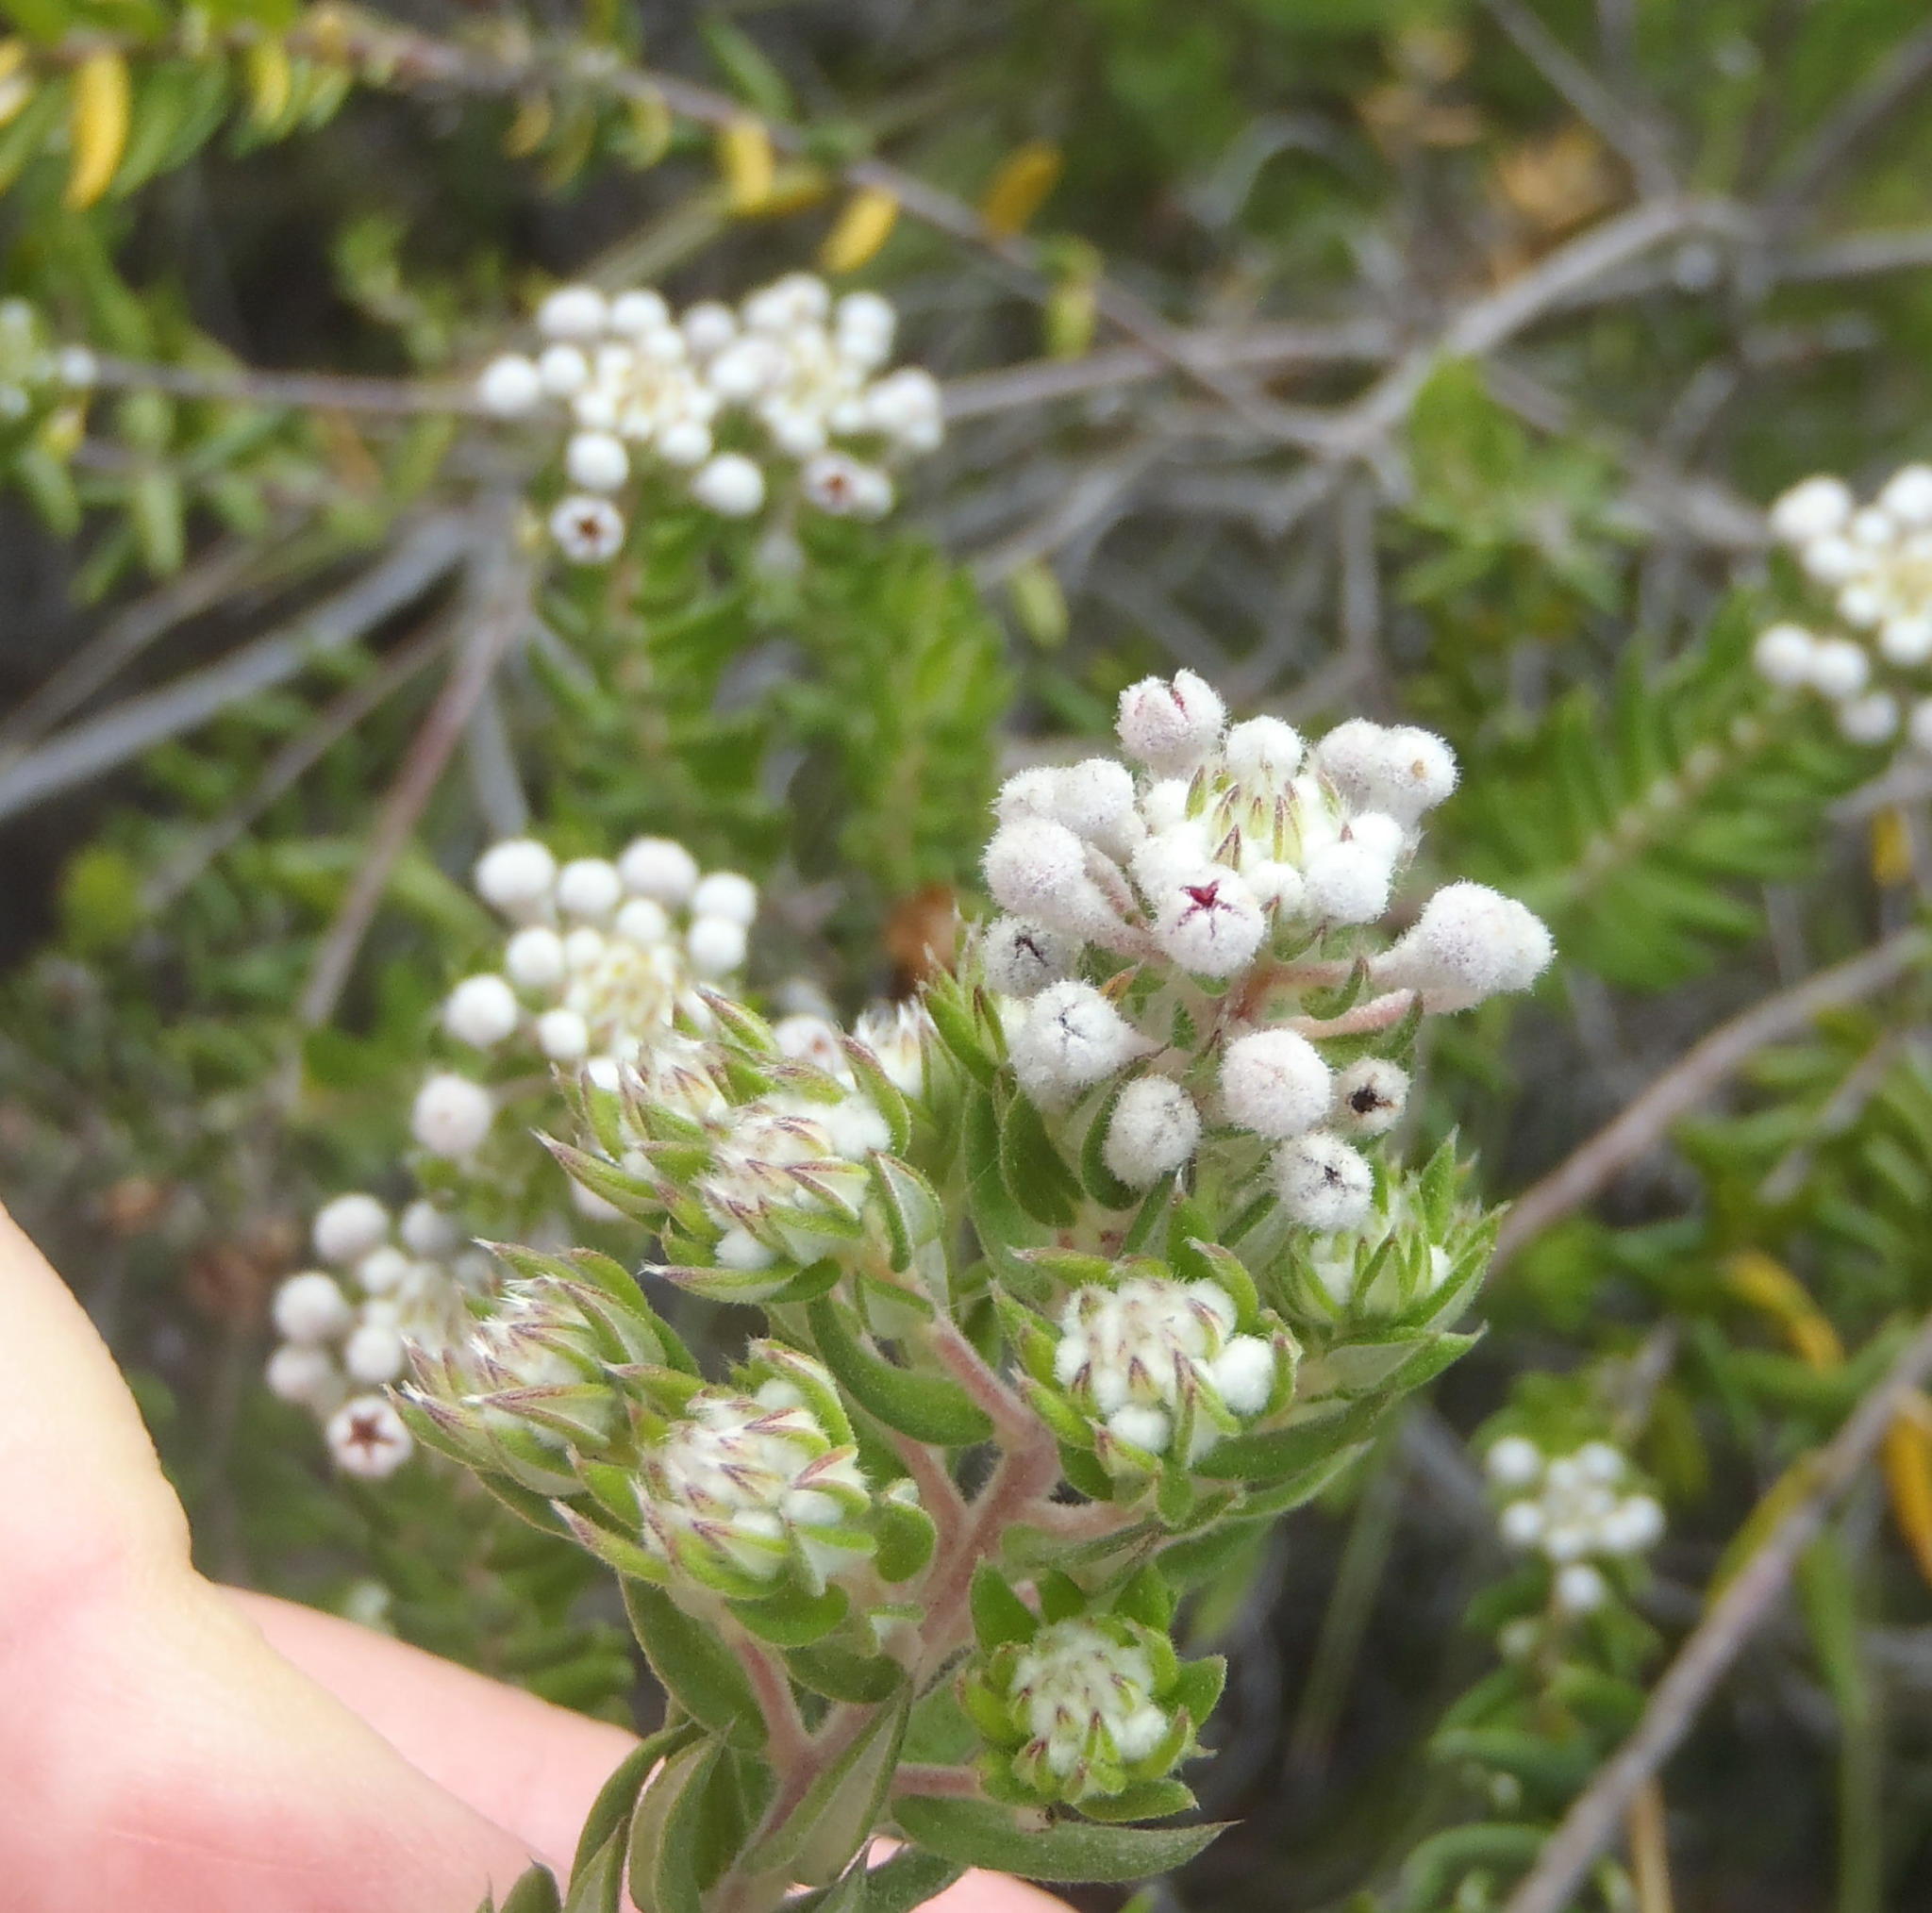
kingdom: Plantae
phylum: Tracheophyta
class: Magnoliopsida
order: Rosales
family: Rhamnaceae
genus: Phylica
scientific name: Phylica pinea
